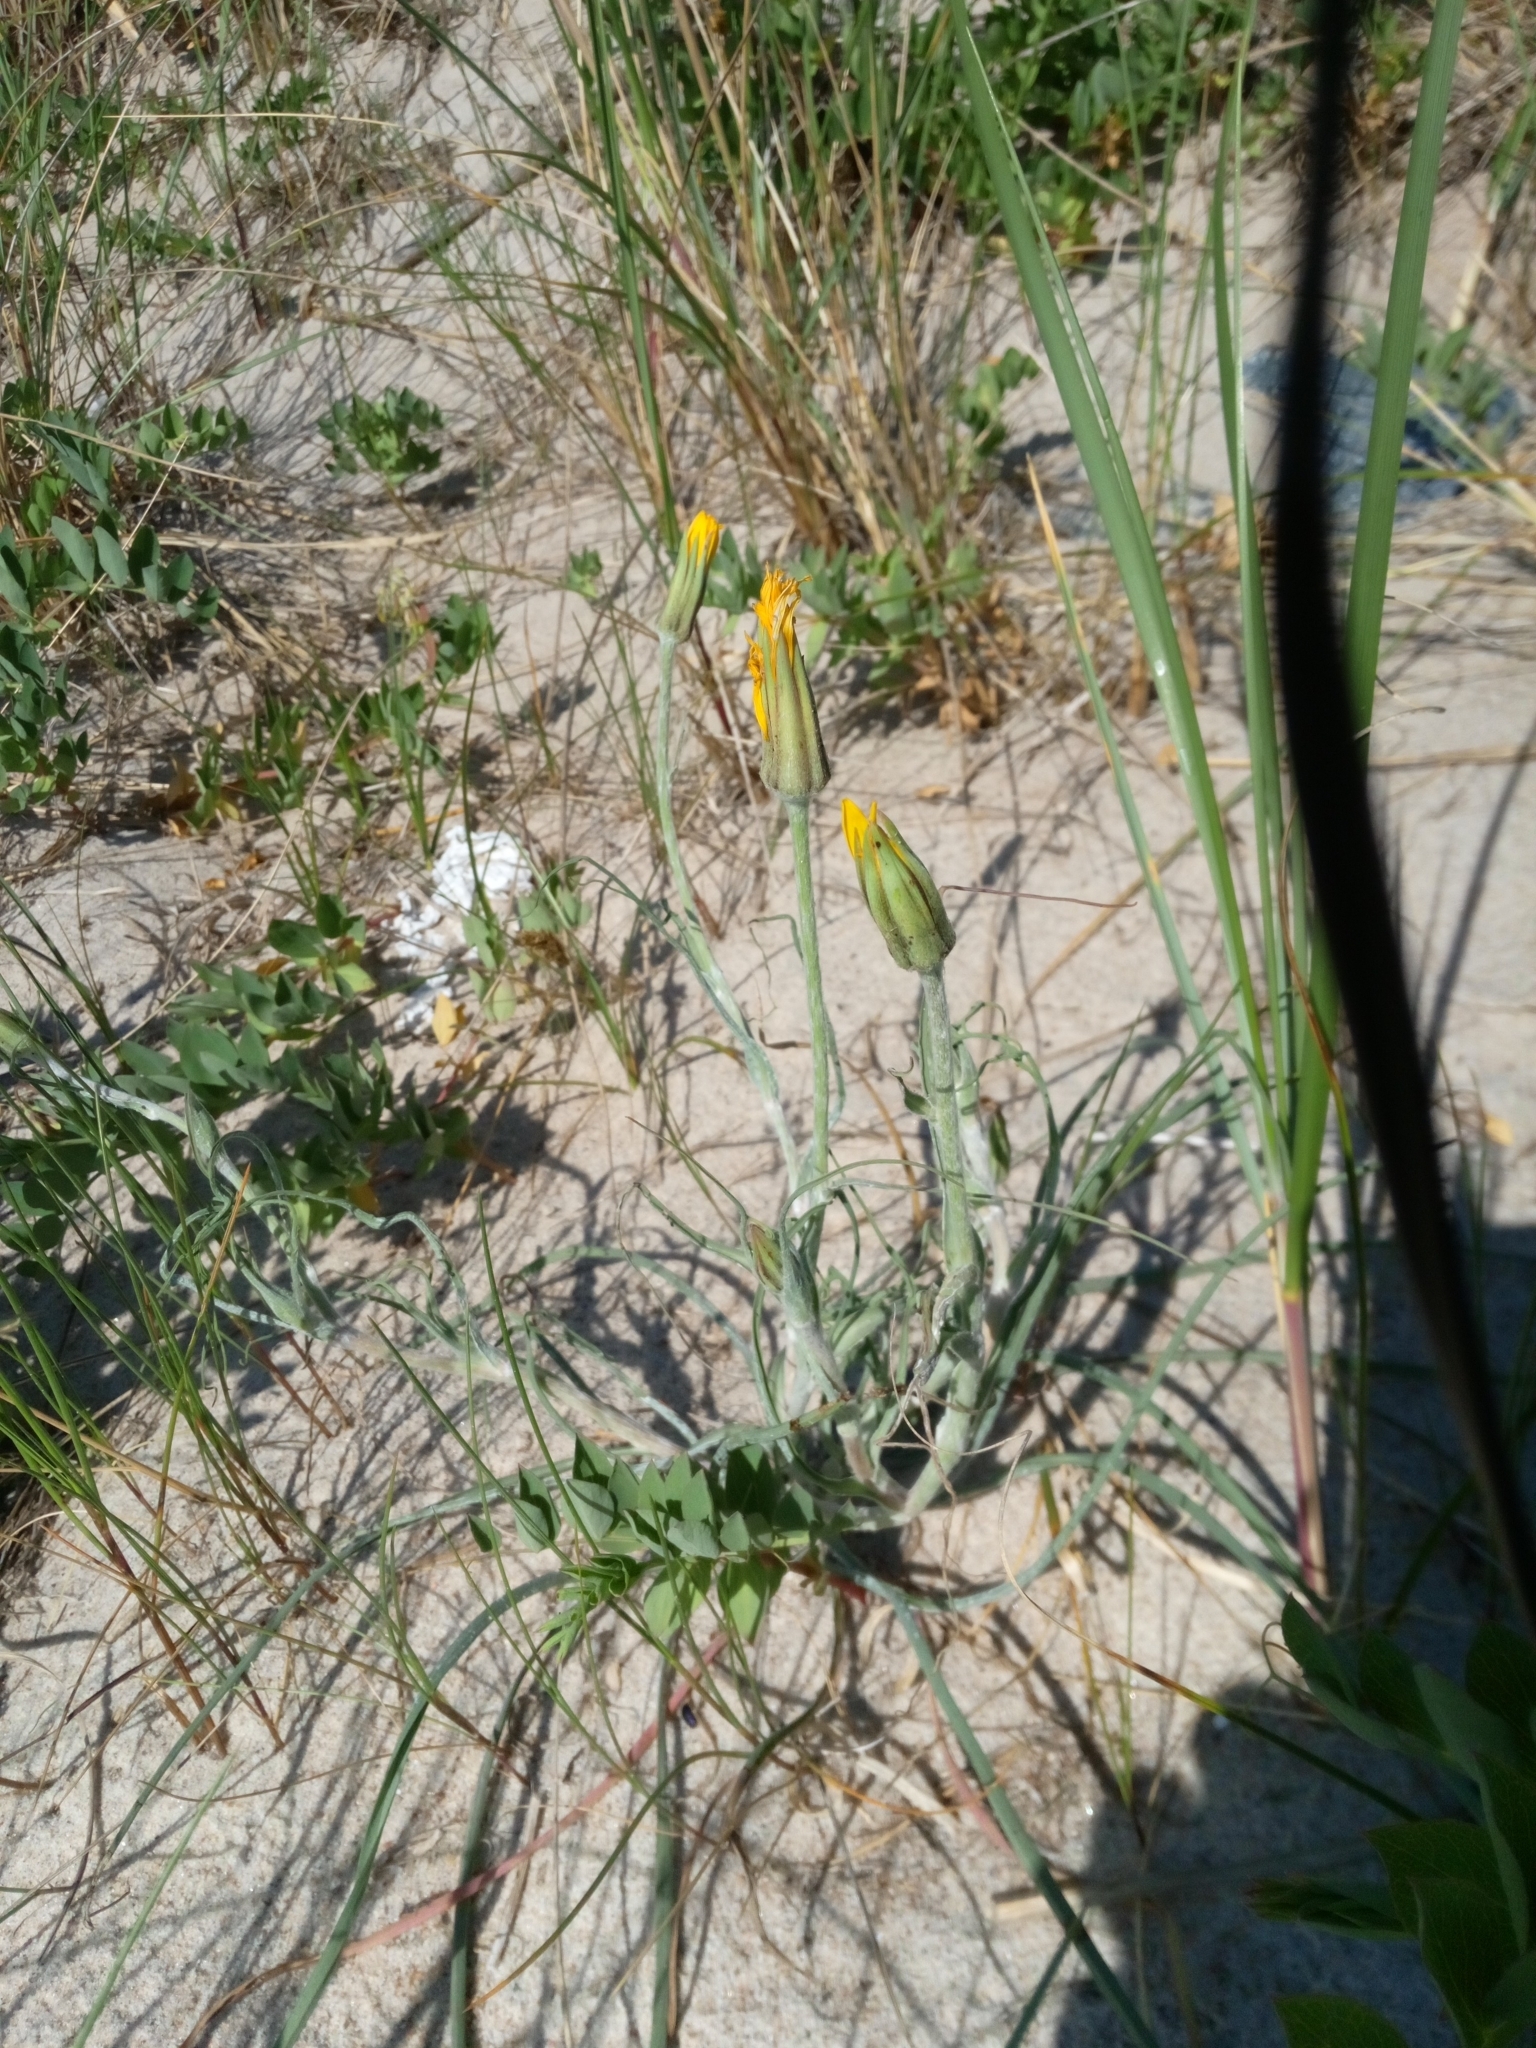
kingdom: Plantae
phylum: Tracheophyta
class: Magnoliopsida
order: Asterales
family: Asteraceae
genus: Tragopogon
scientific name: Tragopogon heterospermus
